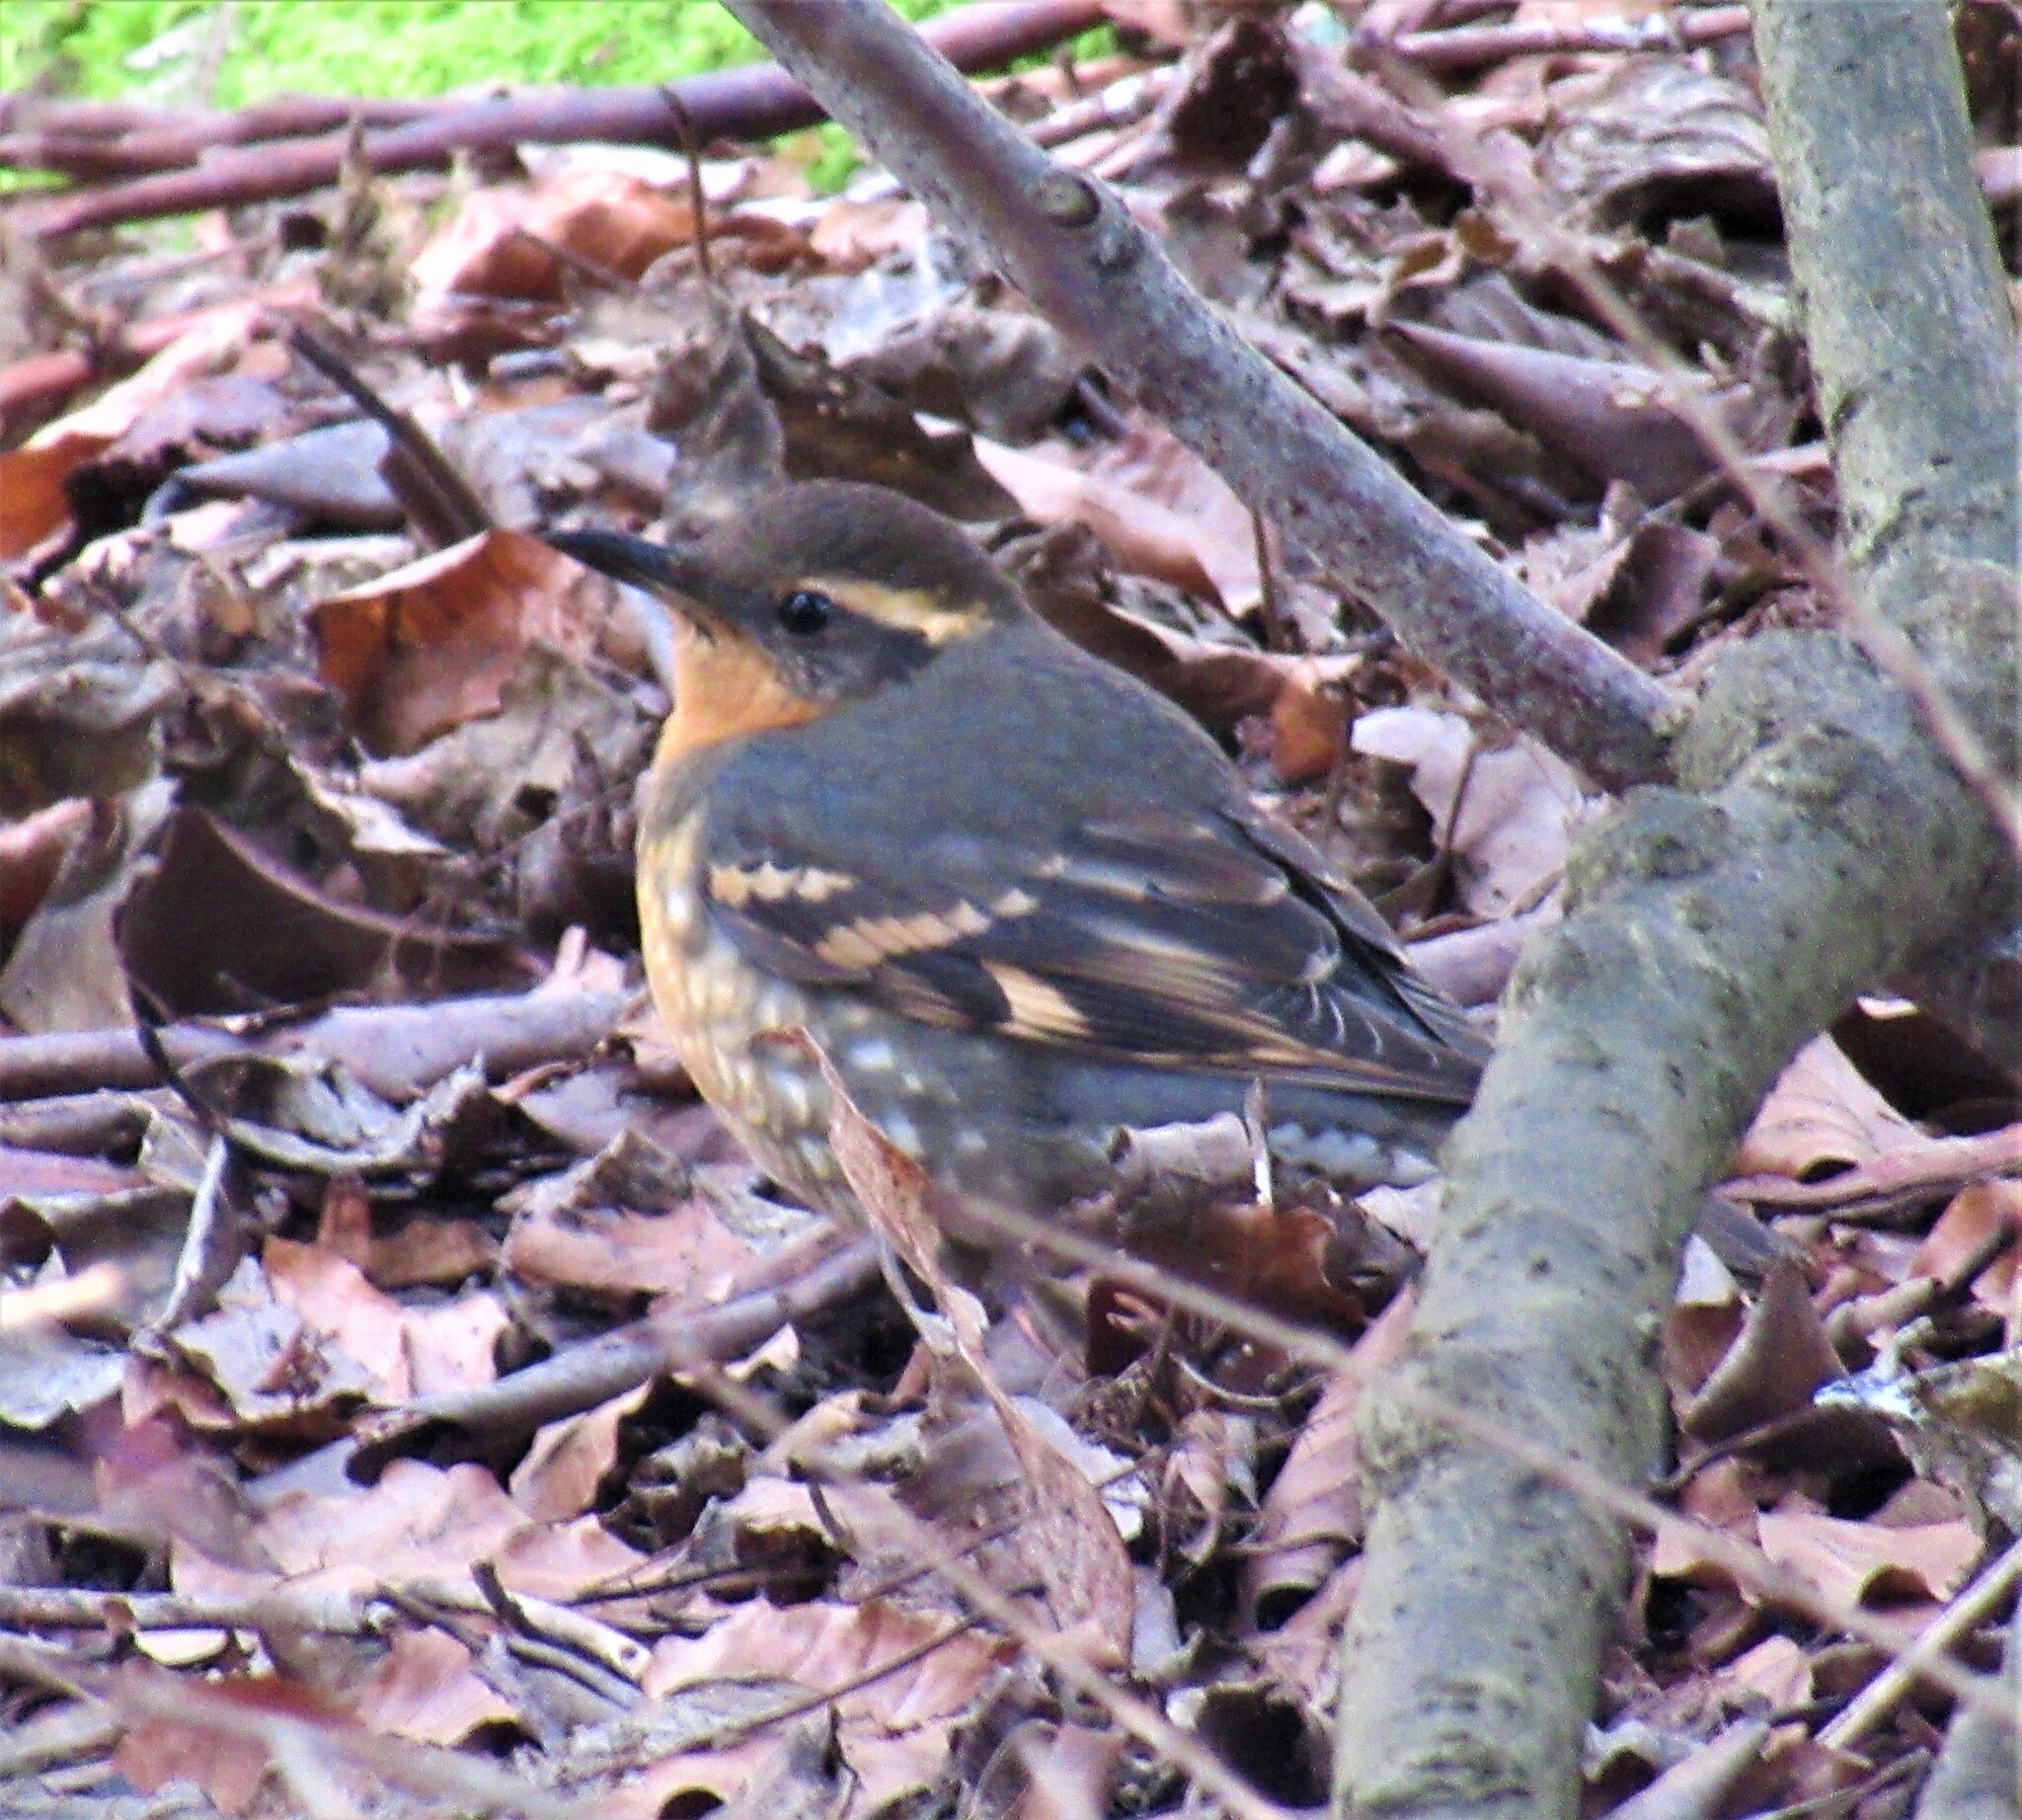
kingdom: Animalia
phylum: Chordata
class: Aves
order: Passeriformes
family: Turdidae
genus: Ixoreus
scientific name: Ixoreus naevius
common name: Varied thrush
